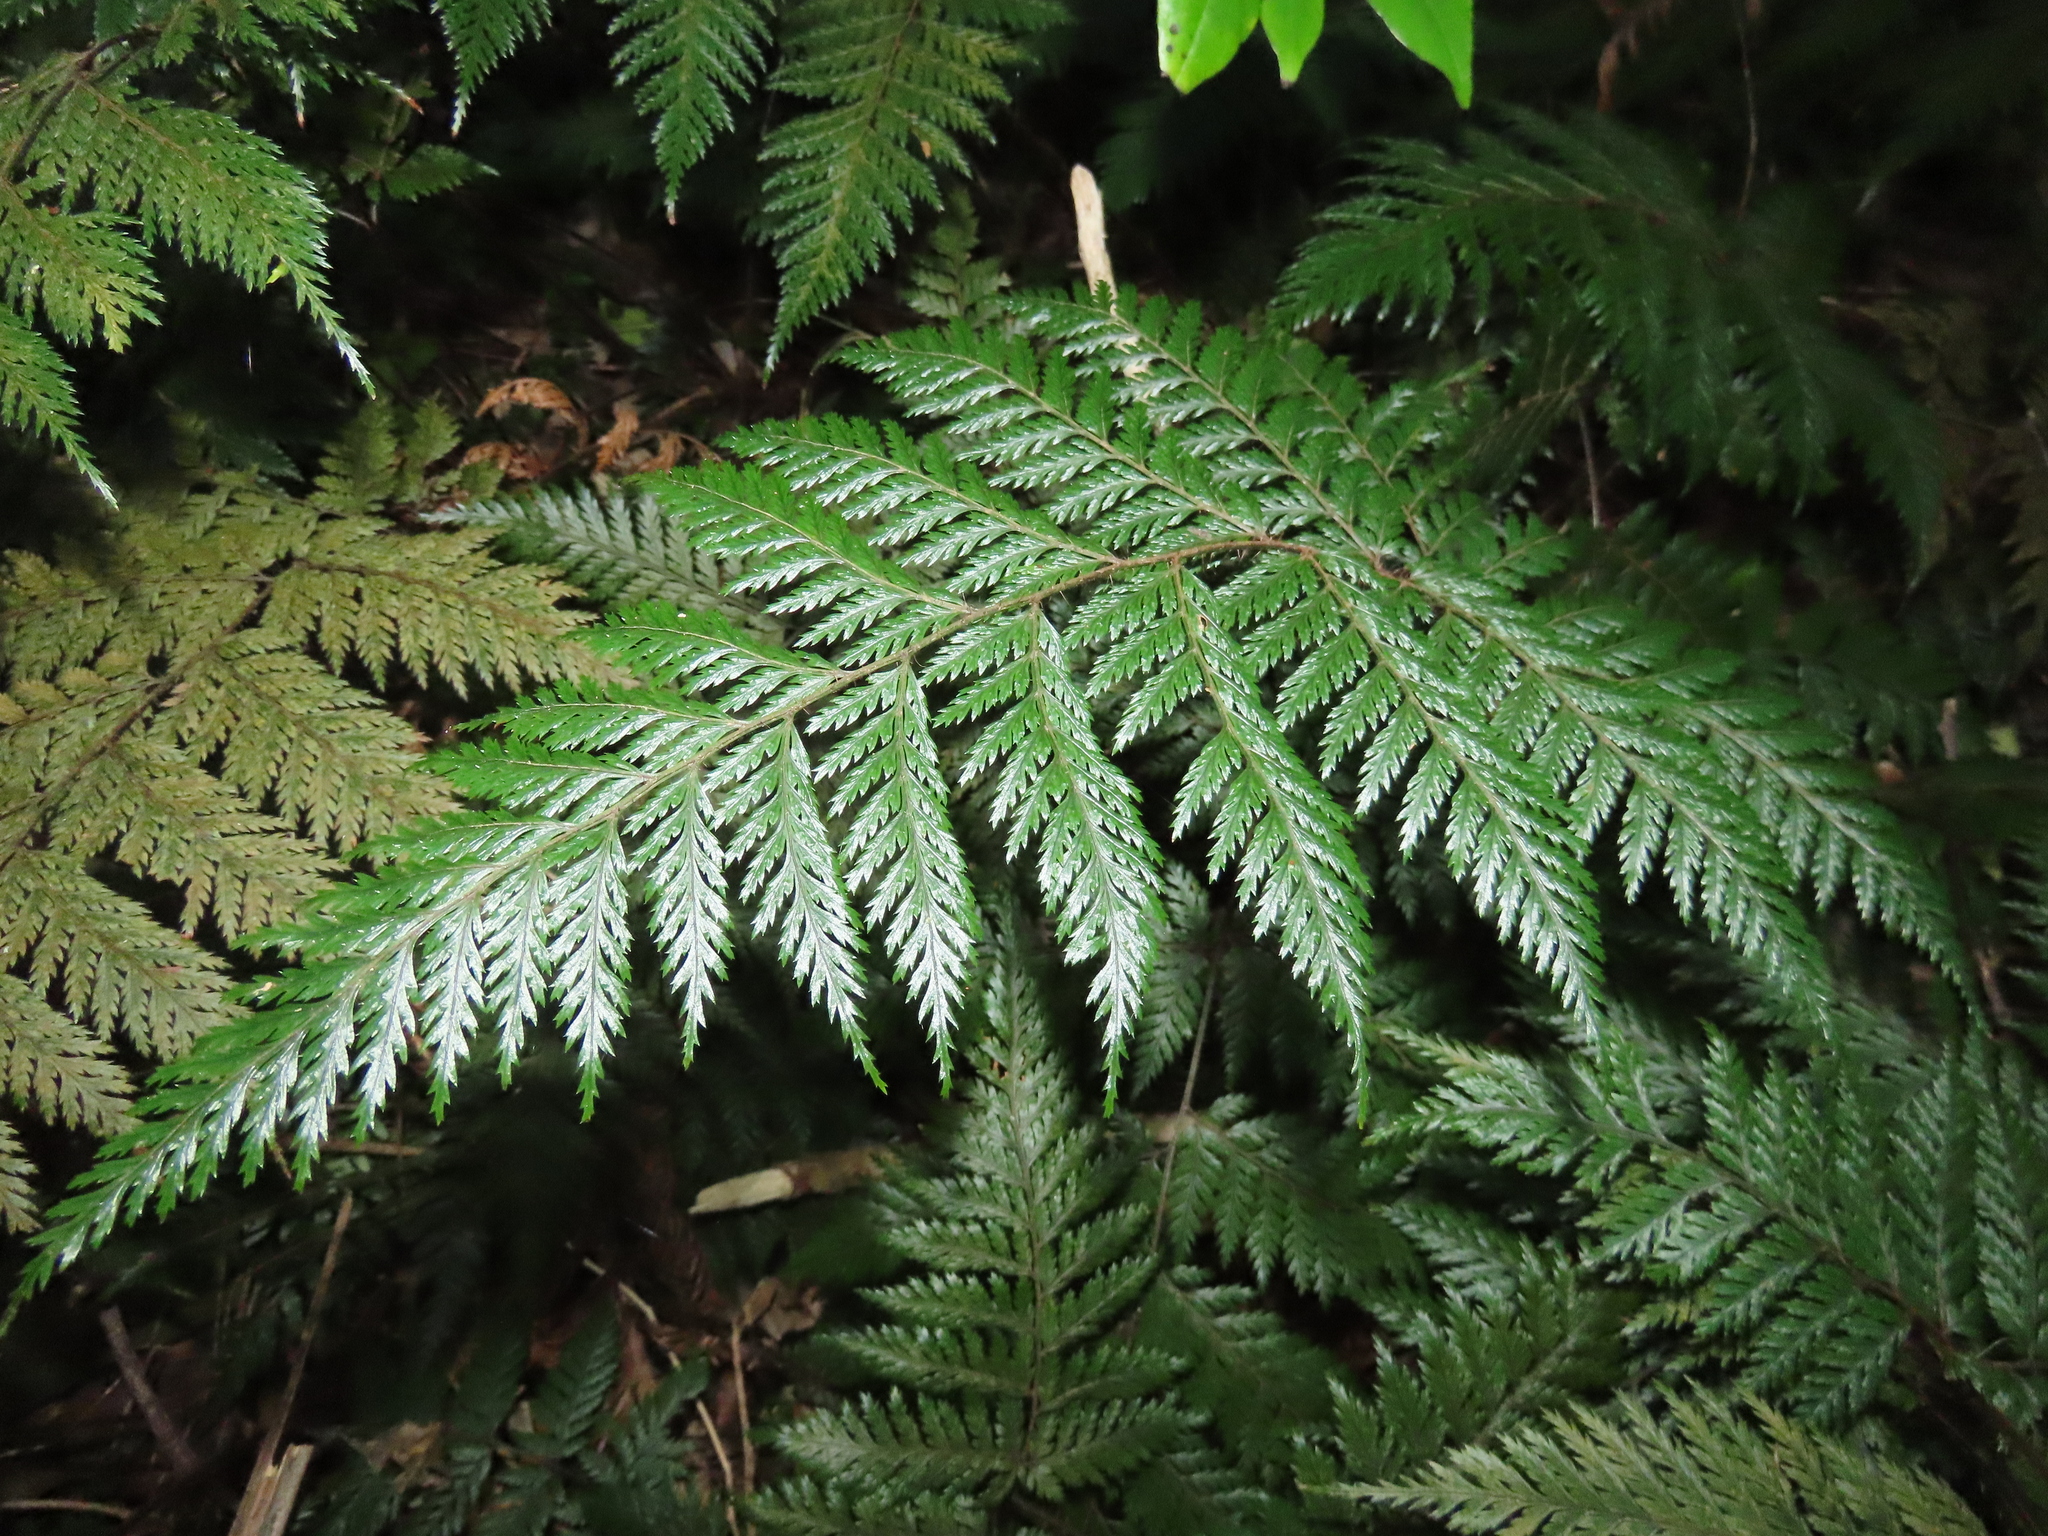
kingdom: Plantae
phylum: Tracheophyta
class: Polypodiopsida
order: Polypodiales
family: Dryopteridaceae
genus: Lastreopsis
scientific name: Lastreopsis hispida
